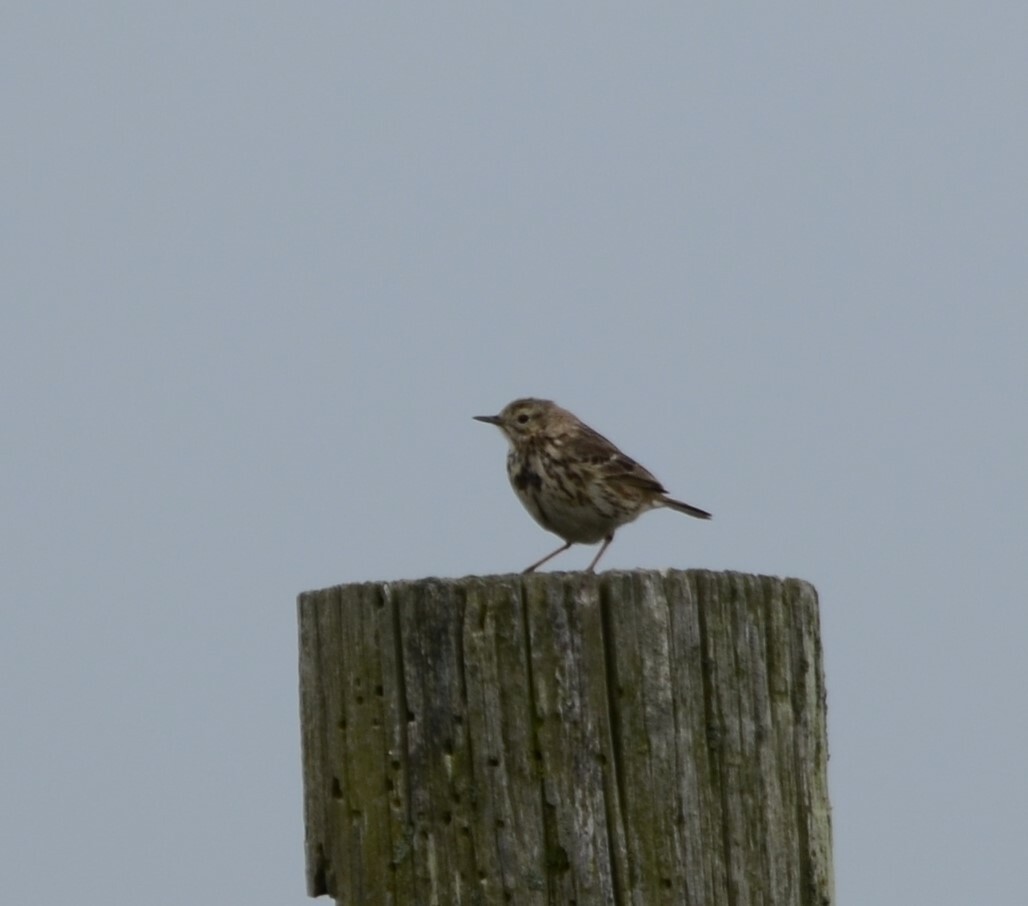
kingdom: Animalia
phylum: Chordata
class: Aves
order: Passeriformes
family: Motacillidae
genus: Anthus
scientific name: Anthus pratensis
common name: Meadow pipit
